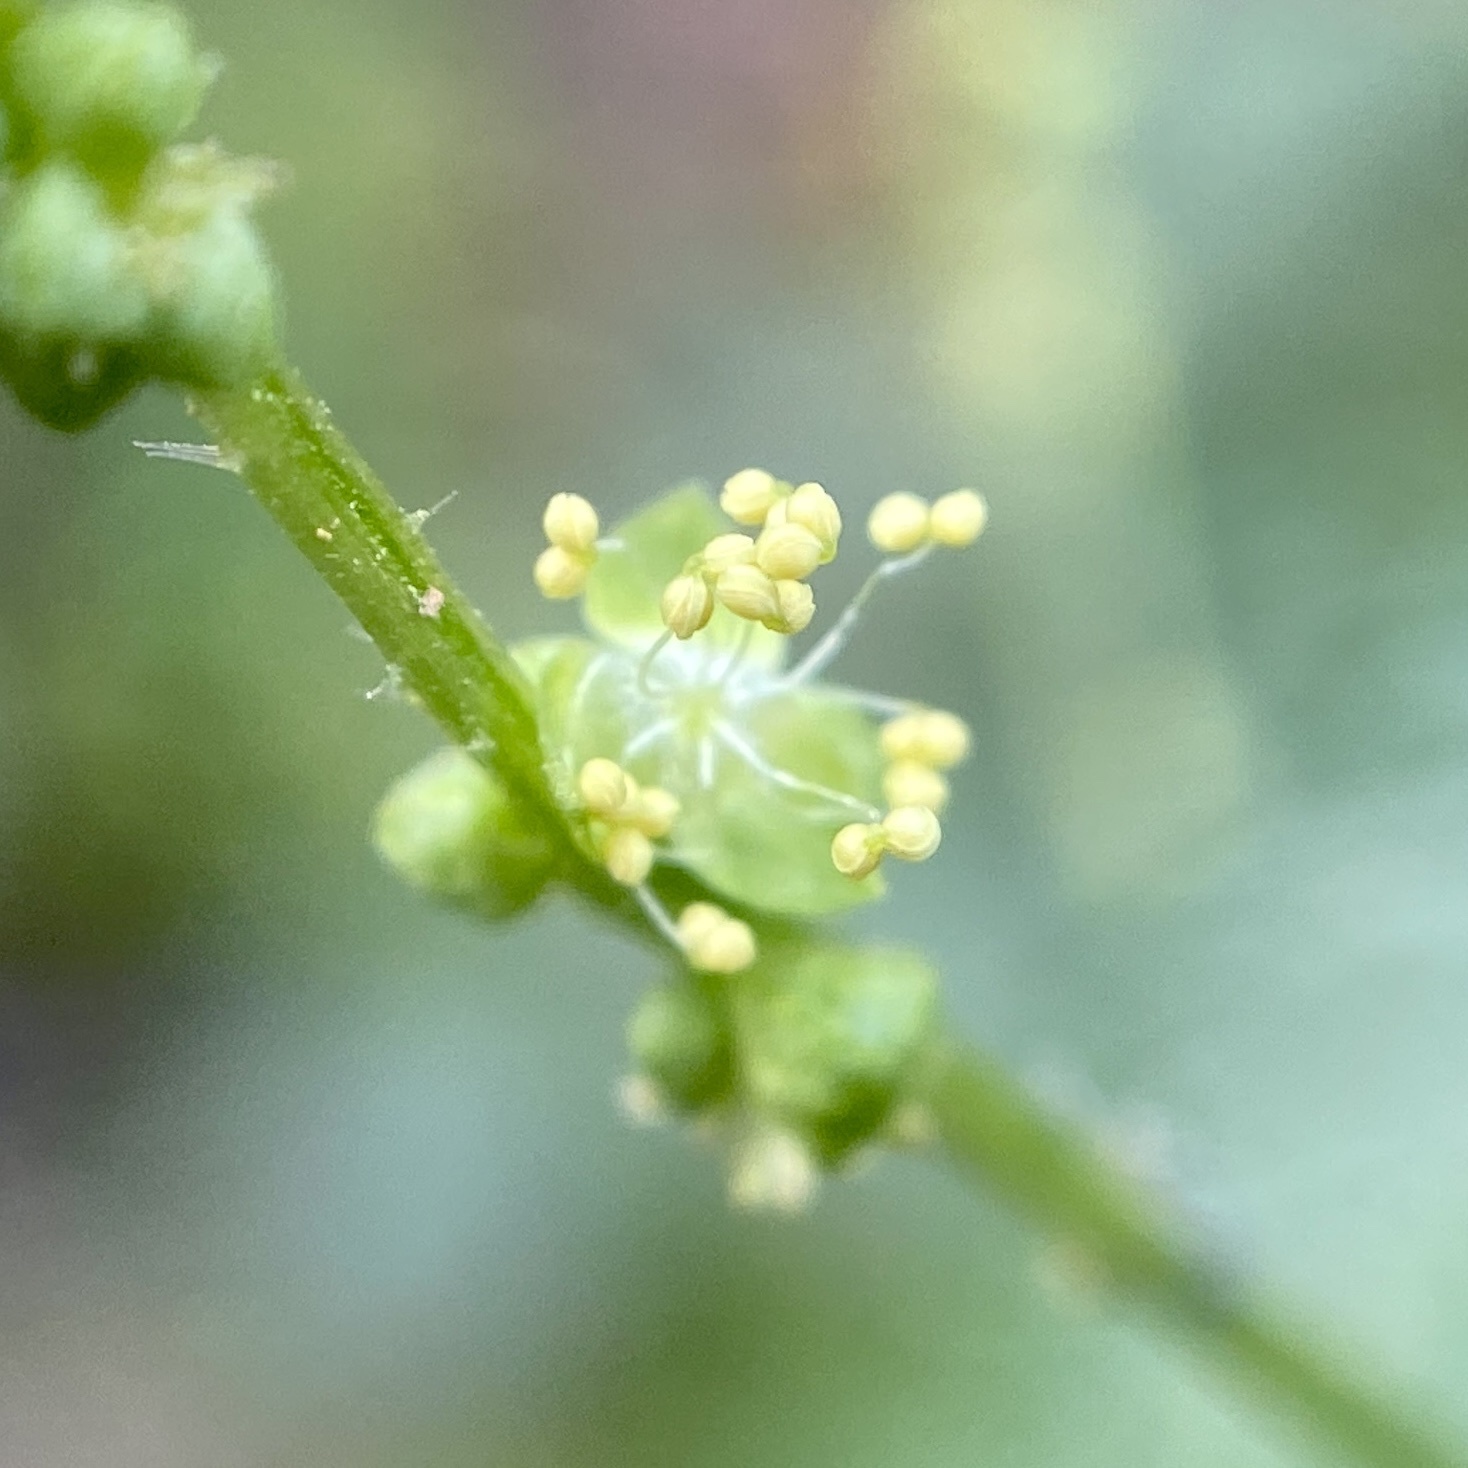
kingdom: Plantae
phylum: Tracheophyta
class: Magnoliopsida
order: Malpighiales
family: Euphorbiaceae
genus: Mercurialis
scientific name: Mercurialis annua
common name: Annual mercury
